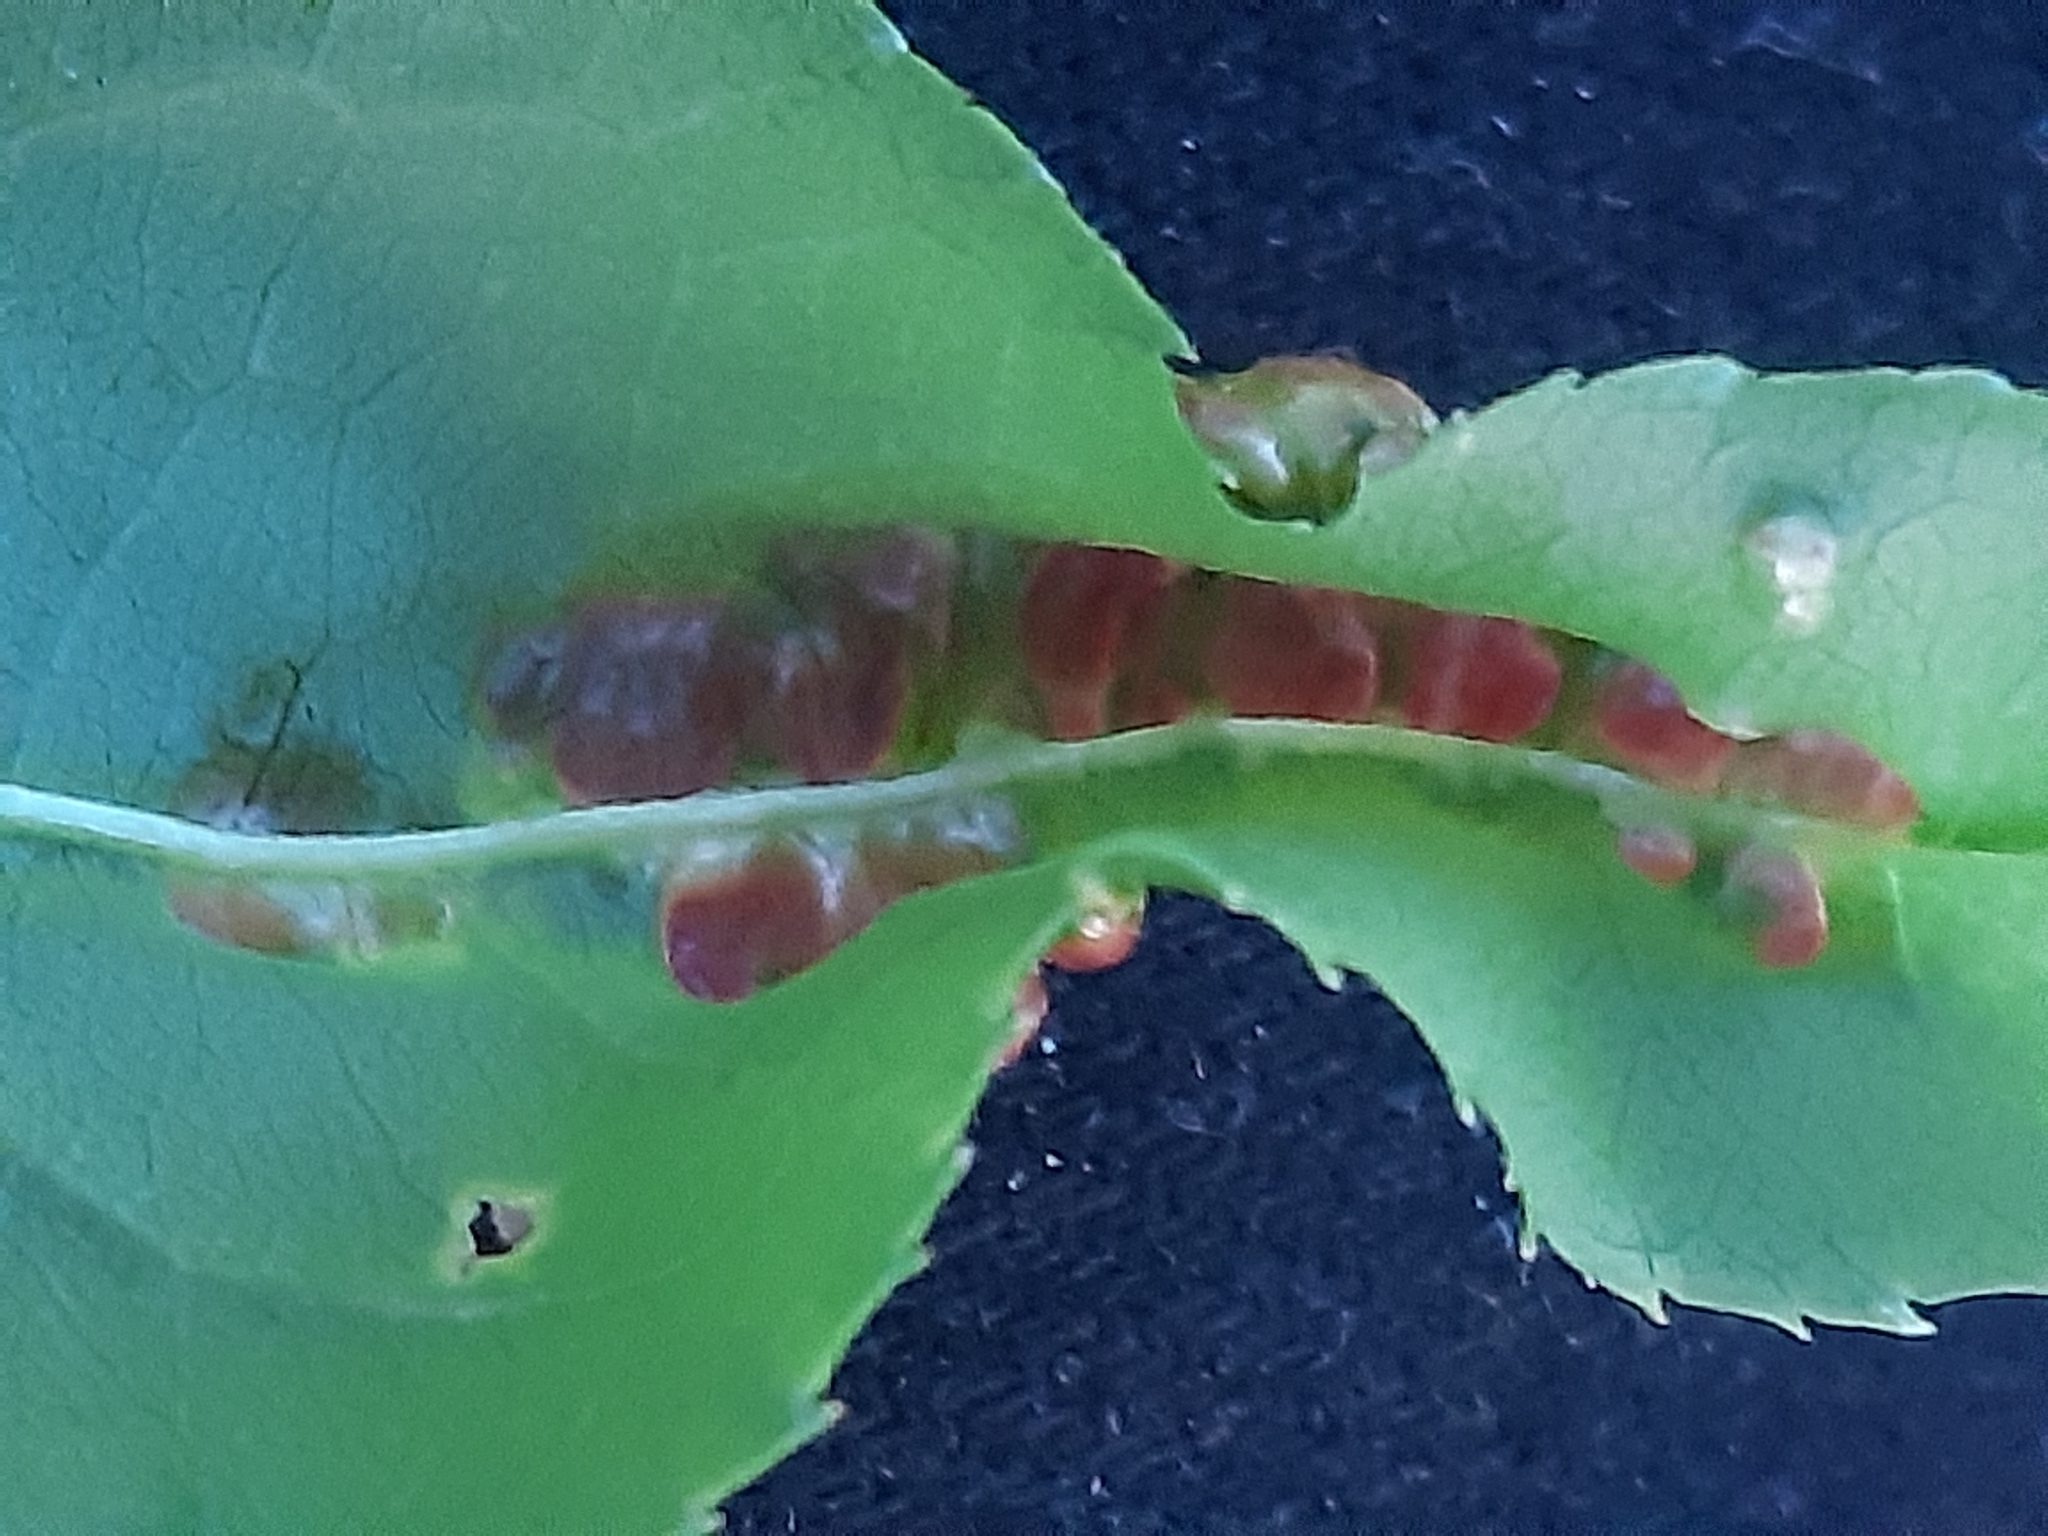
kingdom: Fungi
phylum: Ascomycota
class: Taphrinomycetes
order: Taphrinales
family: Taphrinaceae
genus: Taphrina
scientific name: Taphrina deformans
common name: Peach leaf curl
